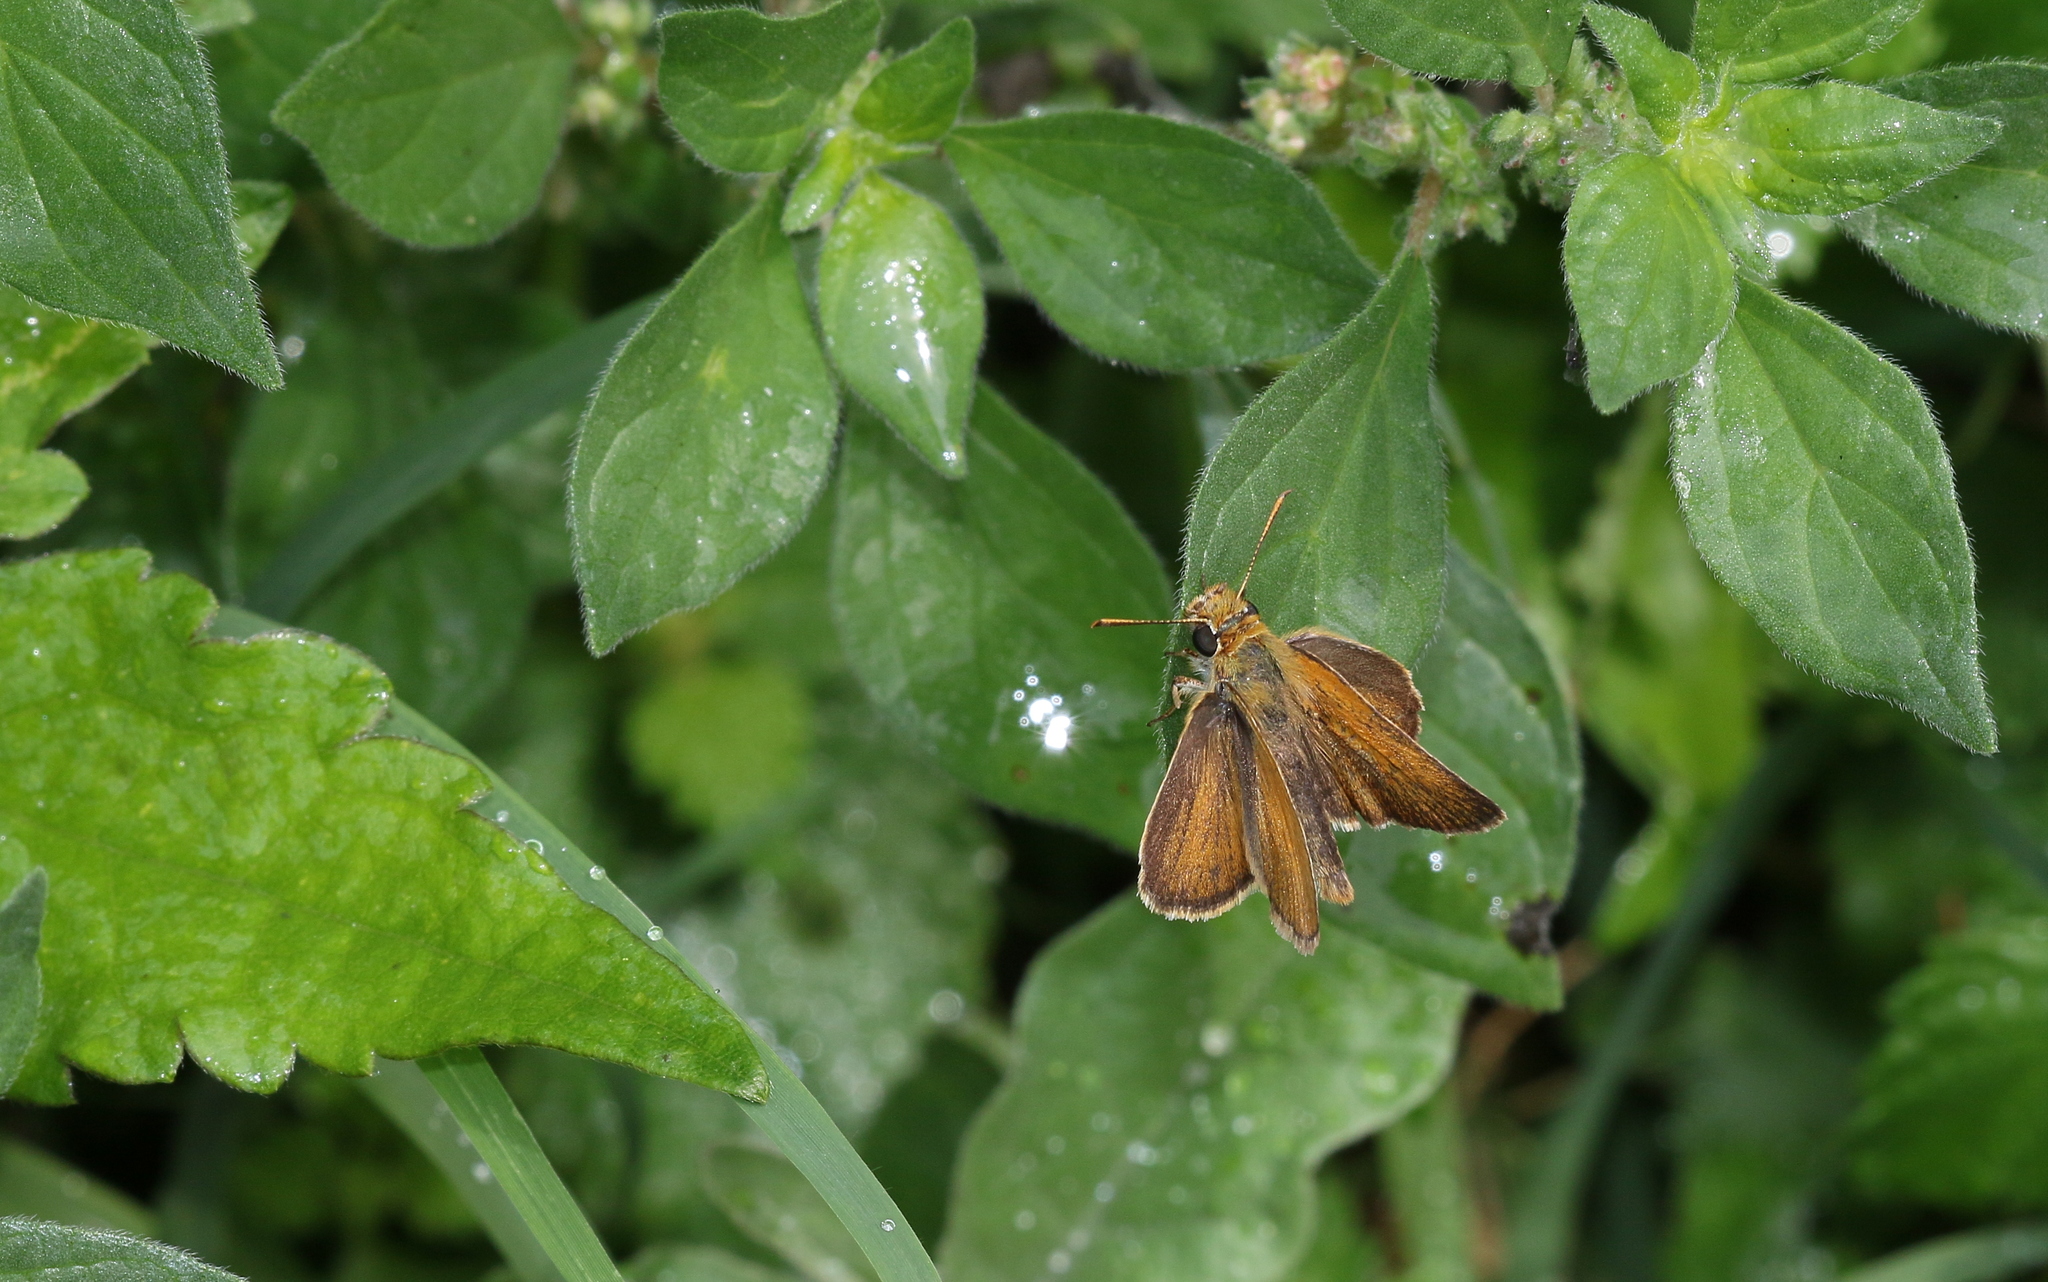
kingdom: Animalia
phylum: Arthropoda
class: Insecta
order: Lepidoptera
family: Hesperiidae
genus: Thymelicus
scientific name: Thymelicus acteon
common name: Lulworth skipper
